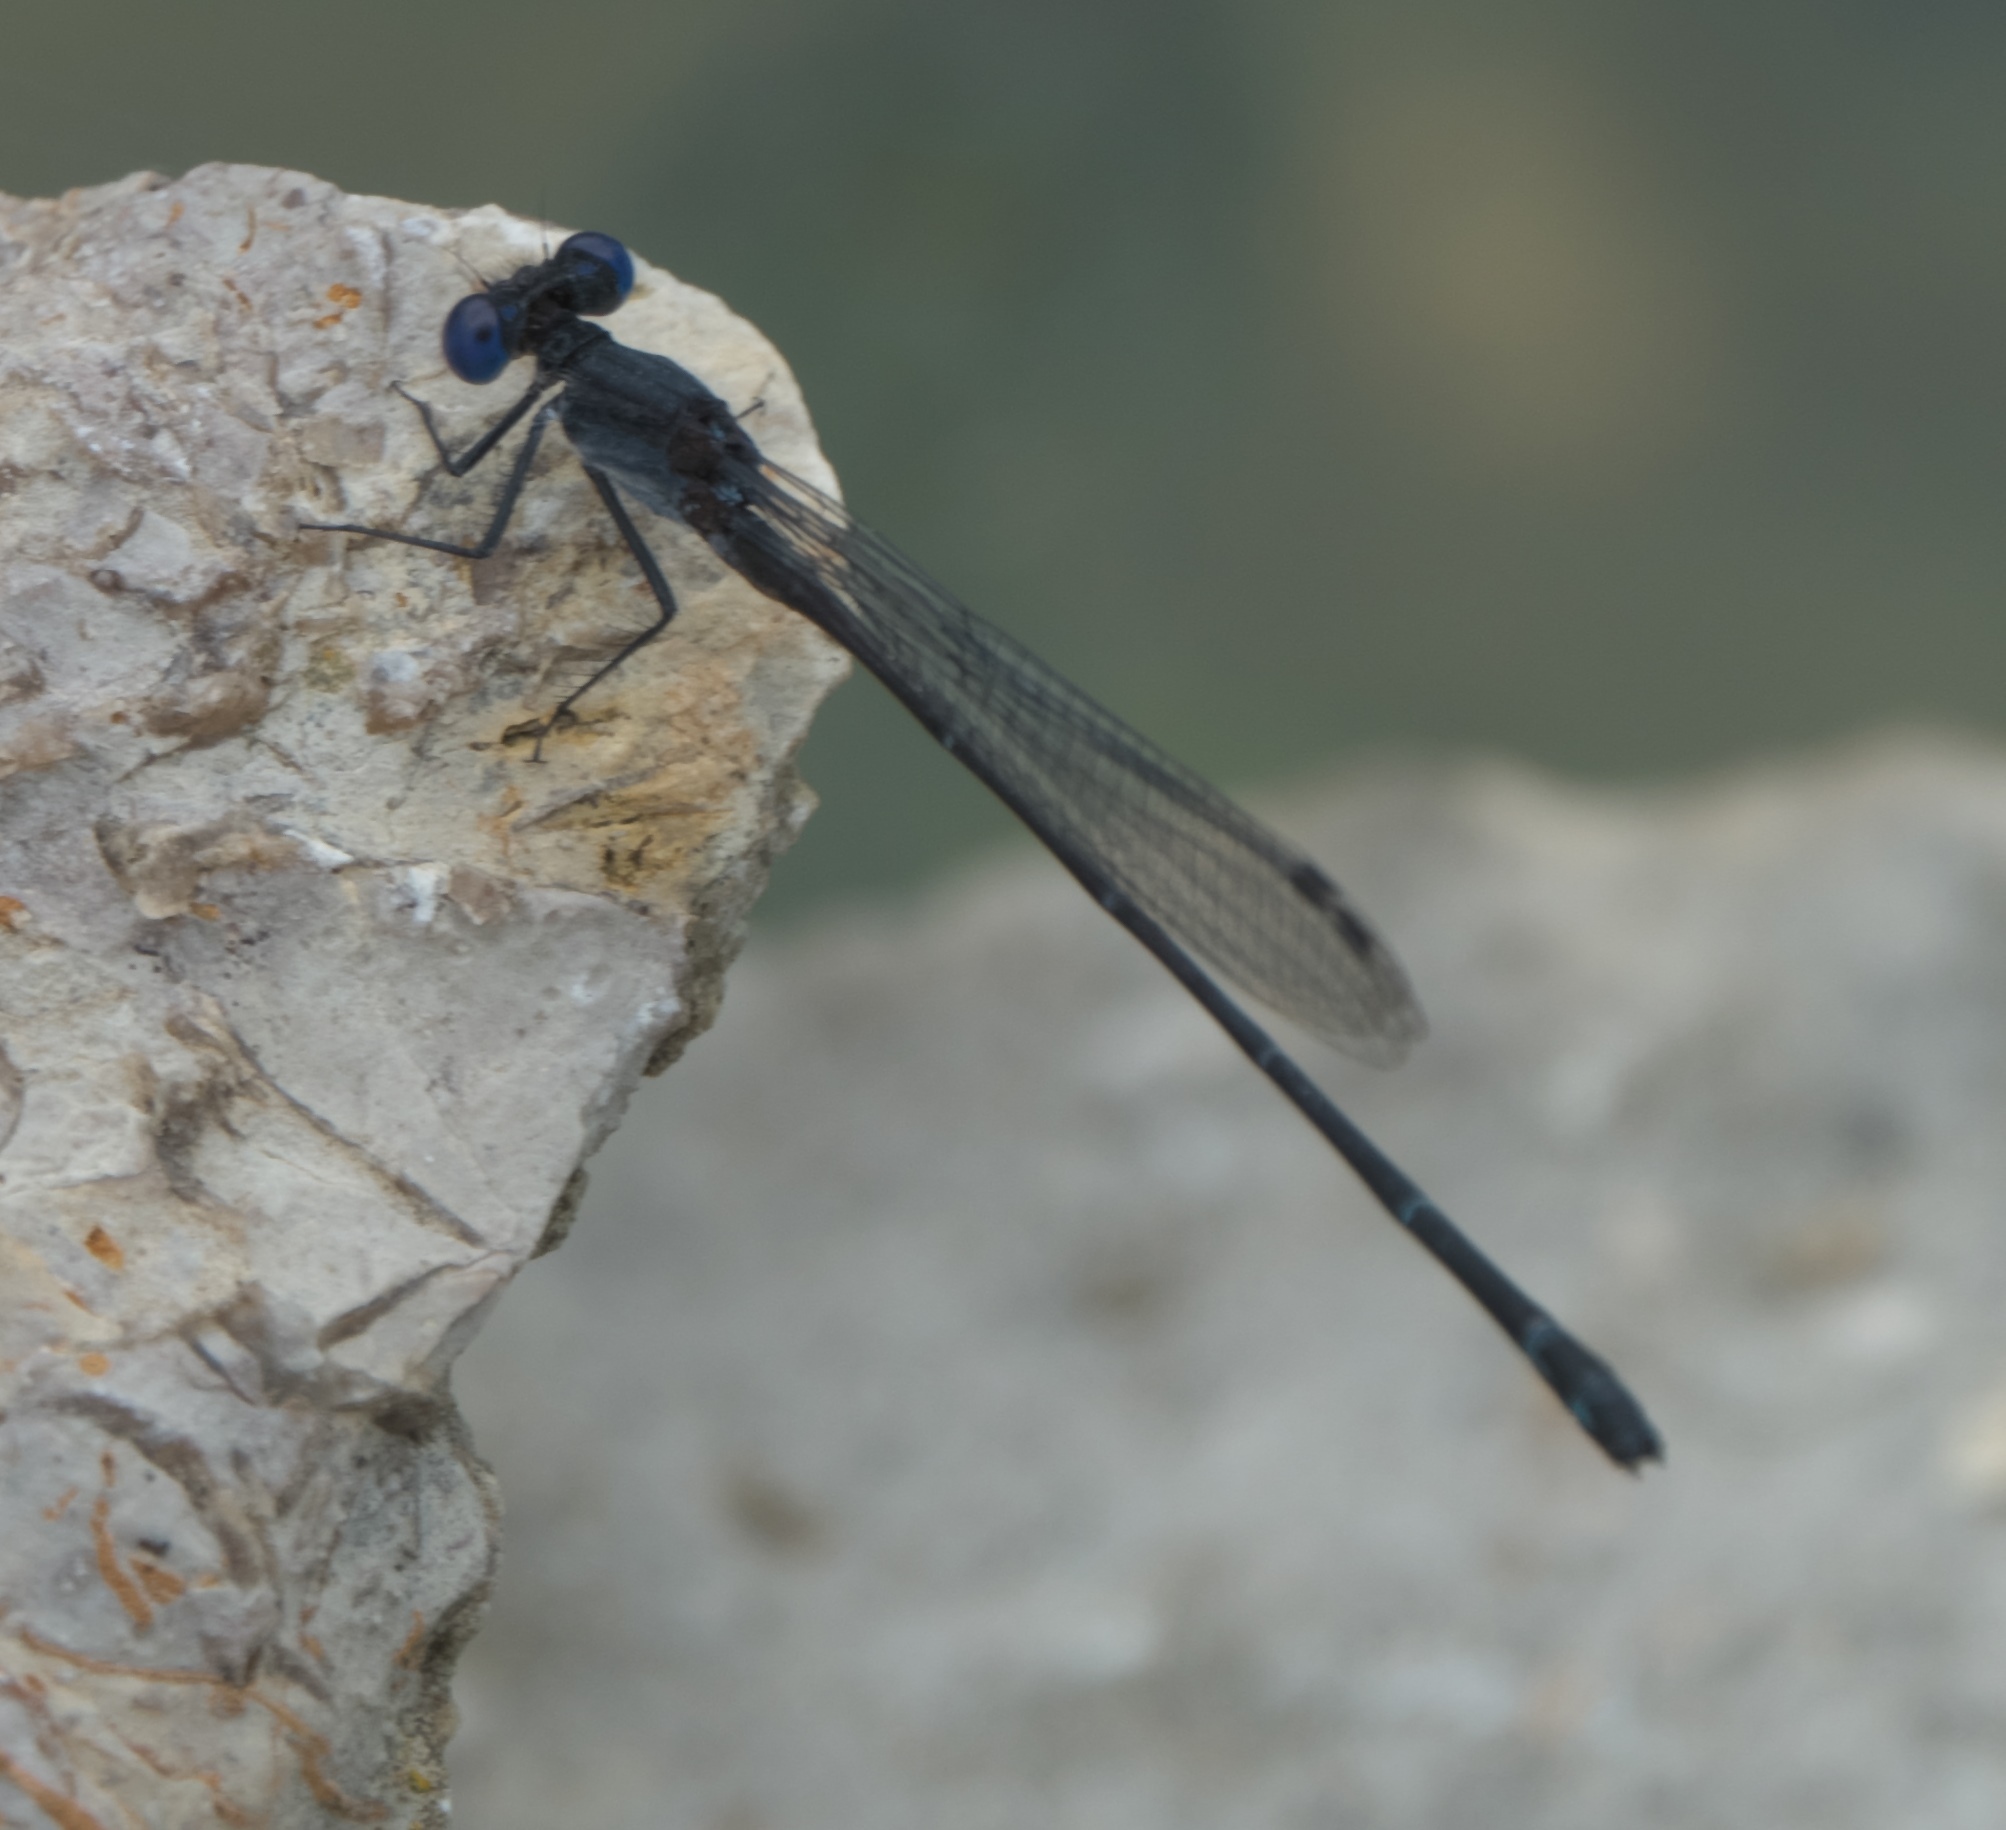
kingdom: Animalia
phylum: Arthropoda
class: Insecta
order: Odonata
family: Coenagrionidae
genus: Argia
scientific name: Argia translata
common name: Dusky dancer
